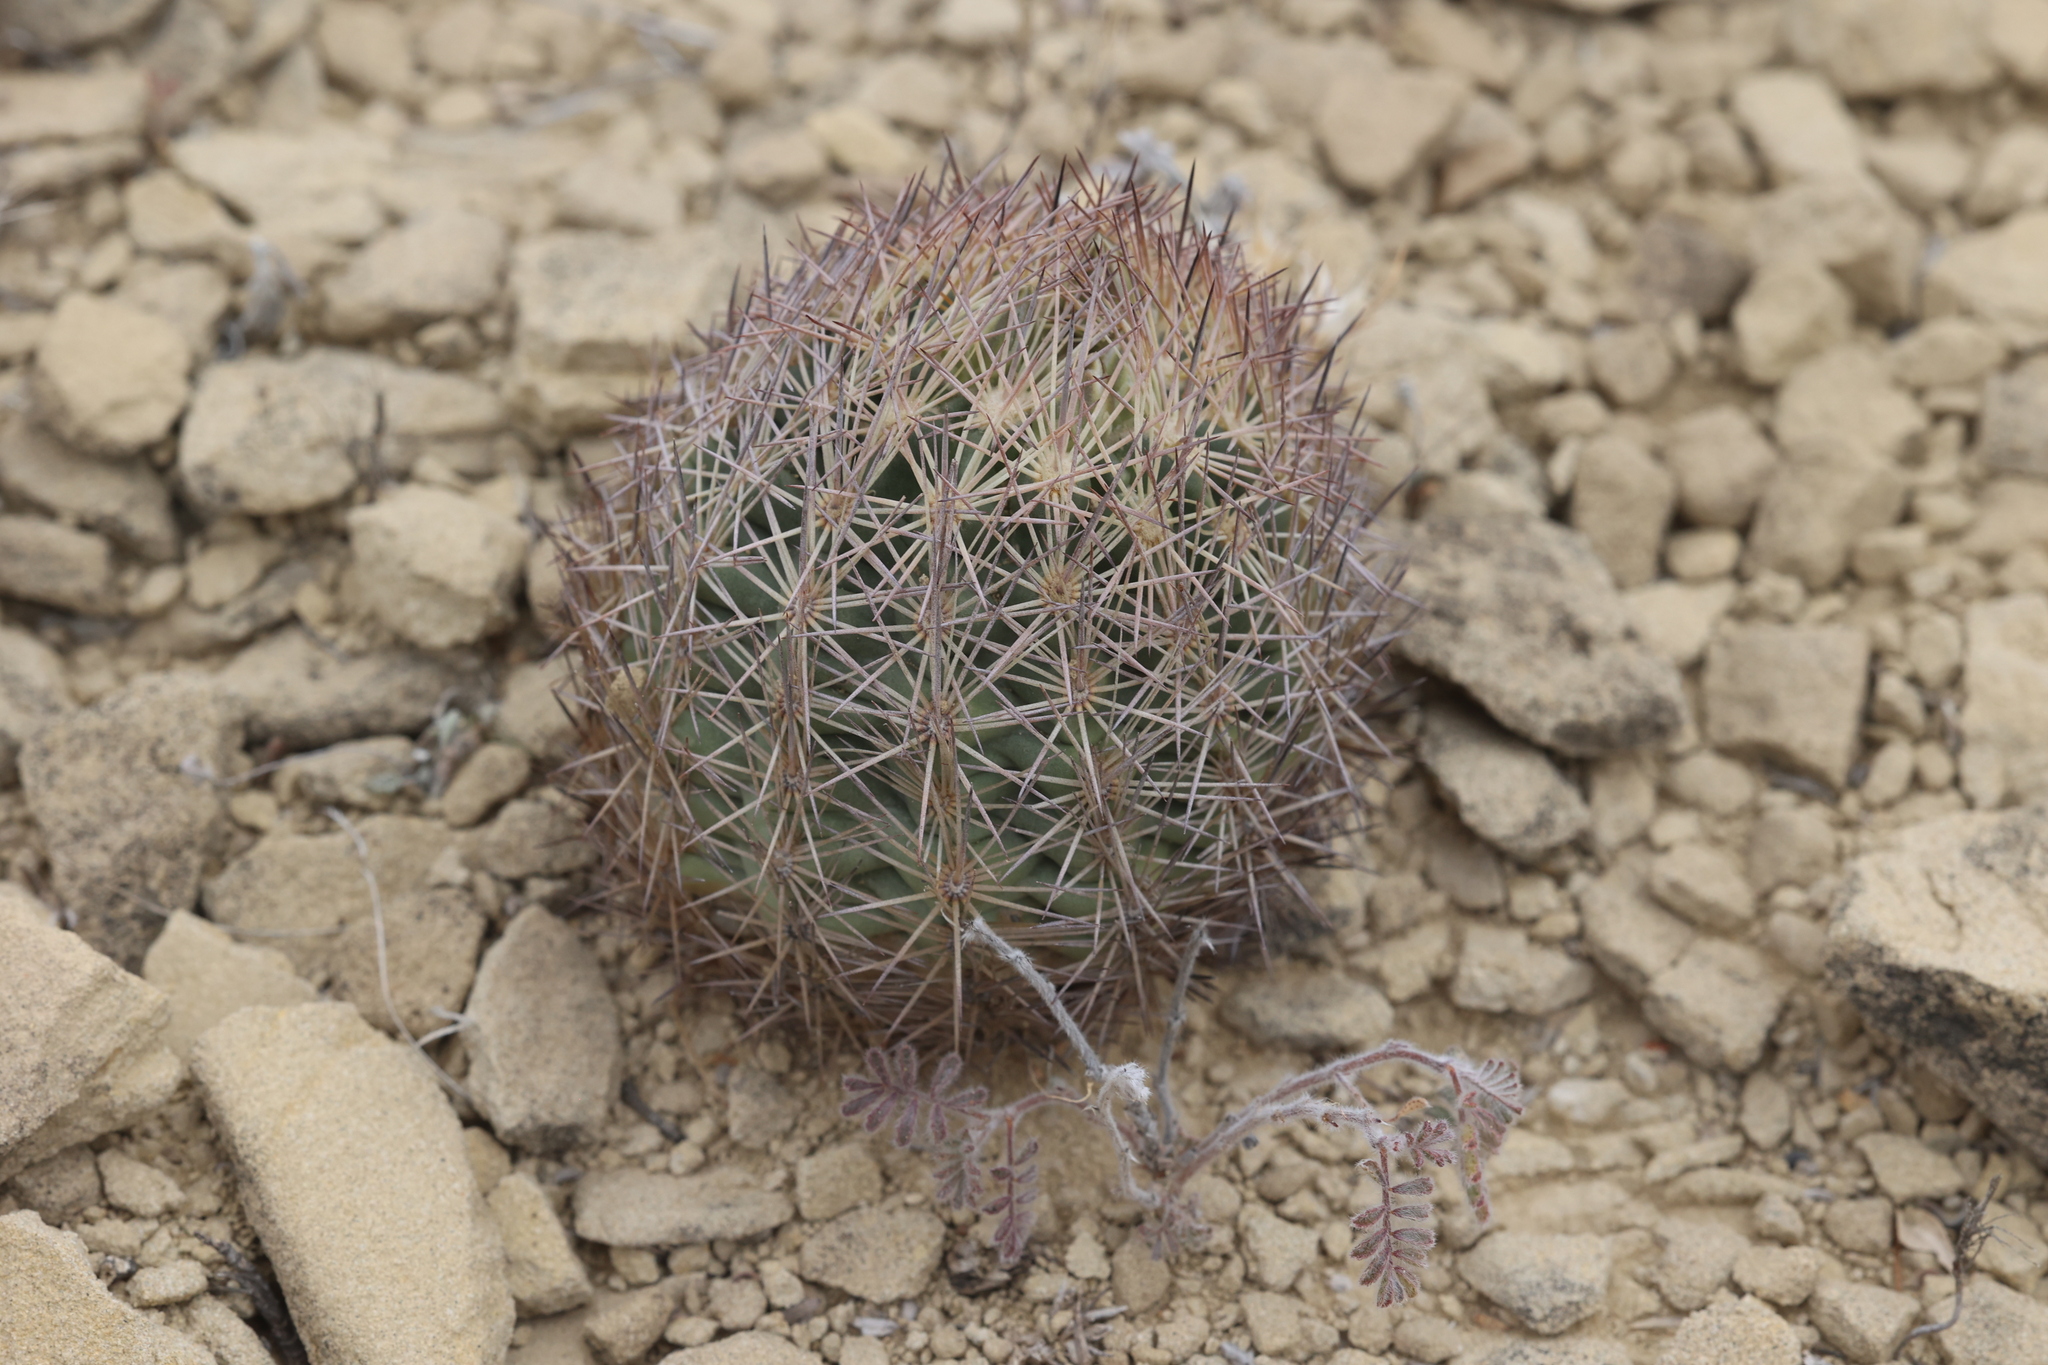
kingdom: Plantae
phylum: Tracheophyta
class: Magnoliopsida
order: Caryophyllales
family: Cactaceae
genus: Sclerocactus
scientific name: Sclerocactus intertextus
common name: White fish-hook cactus
